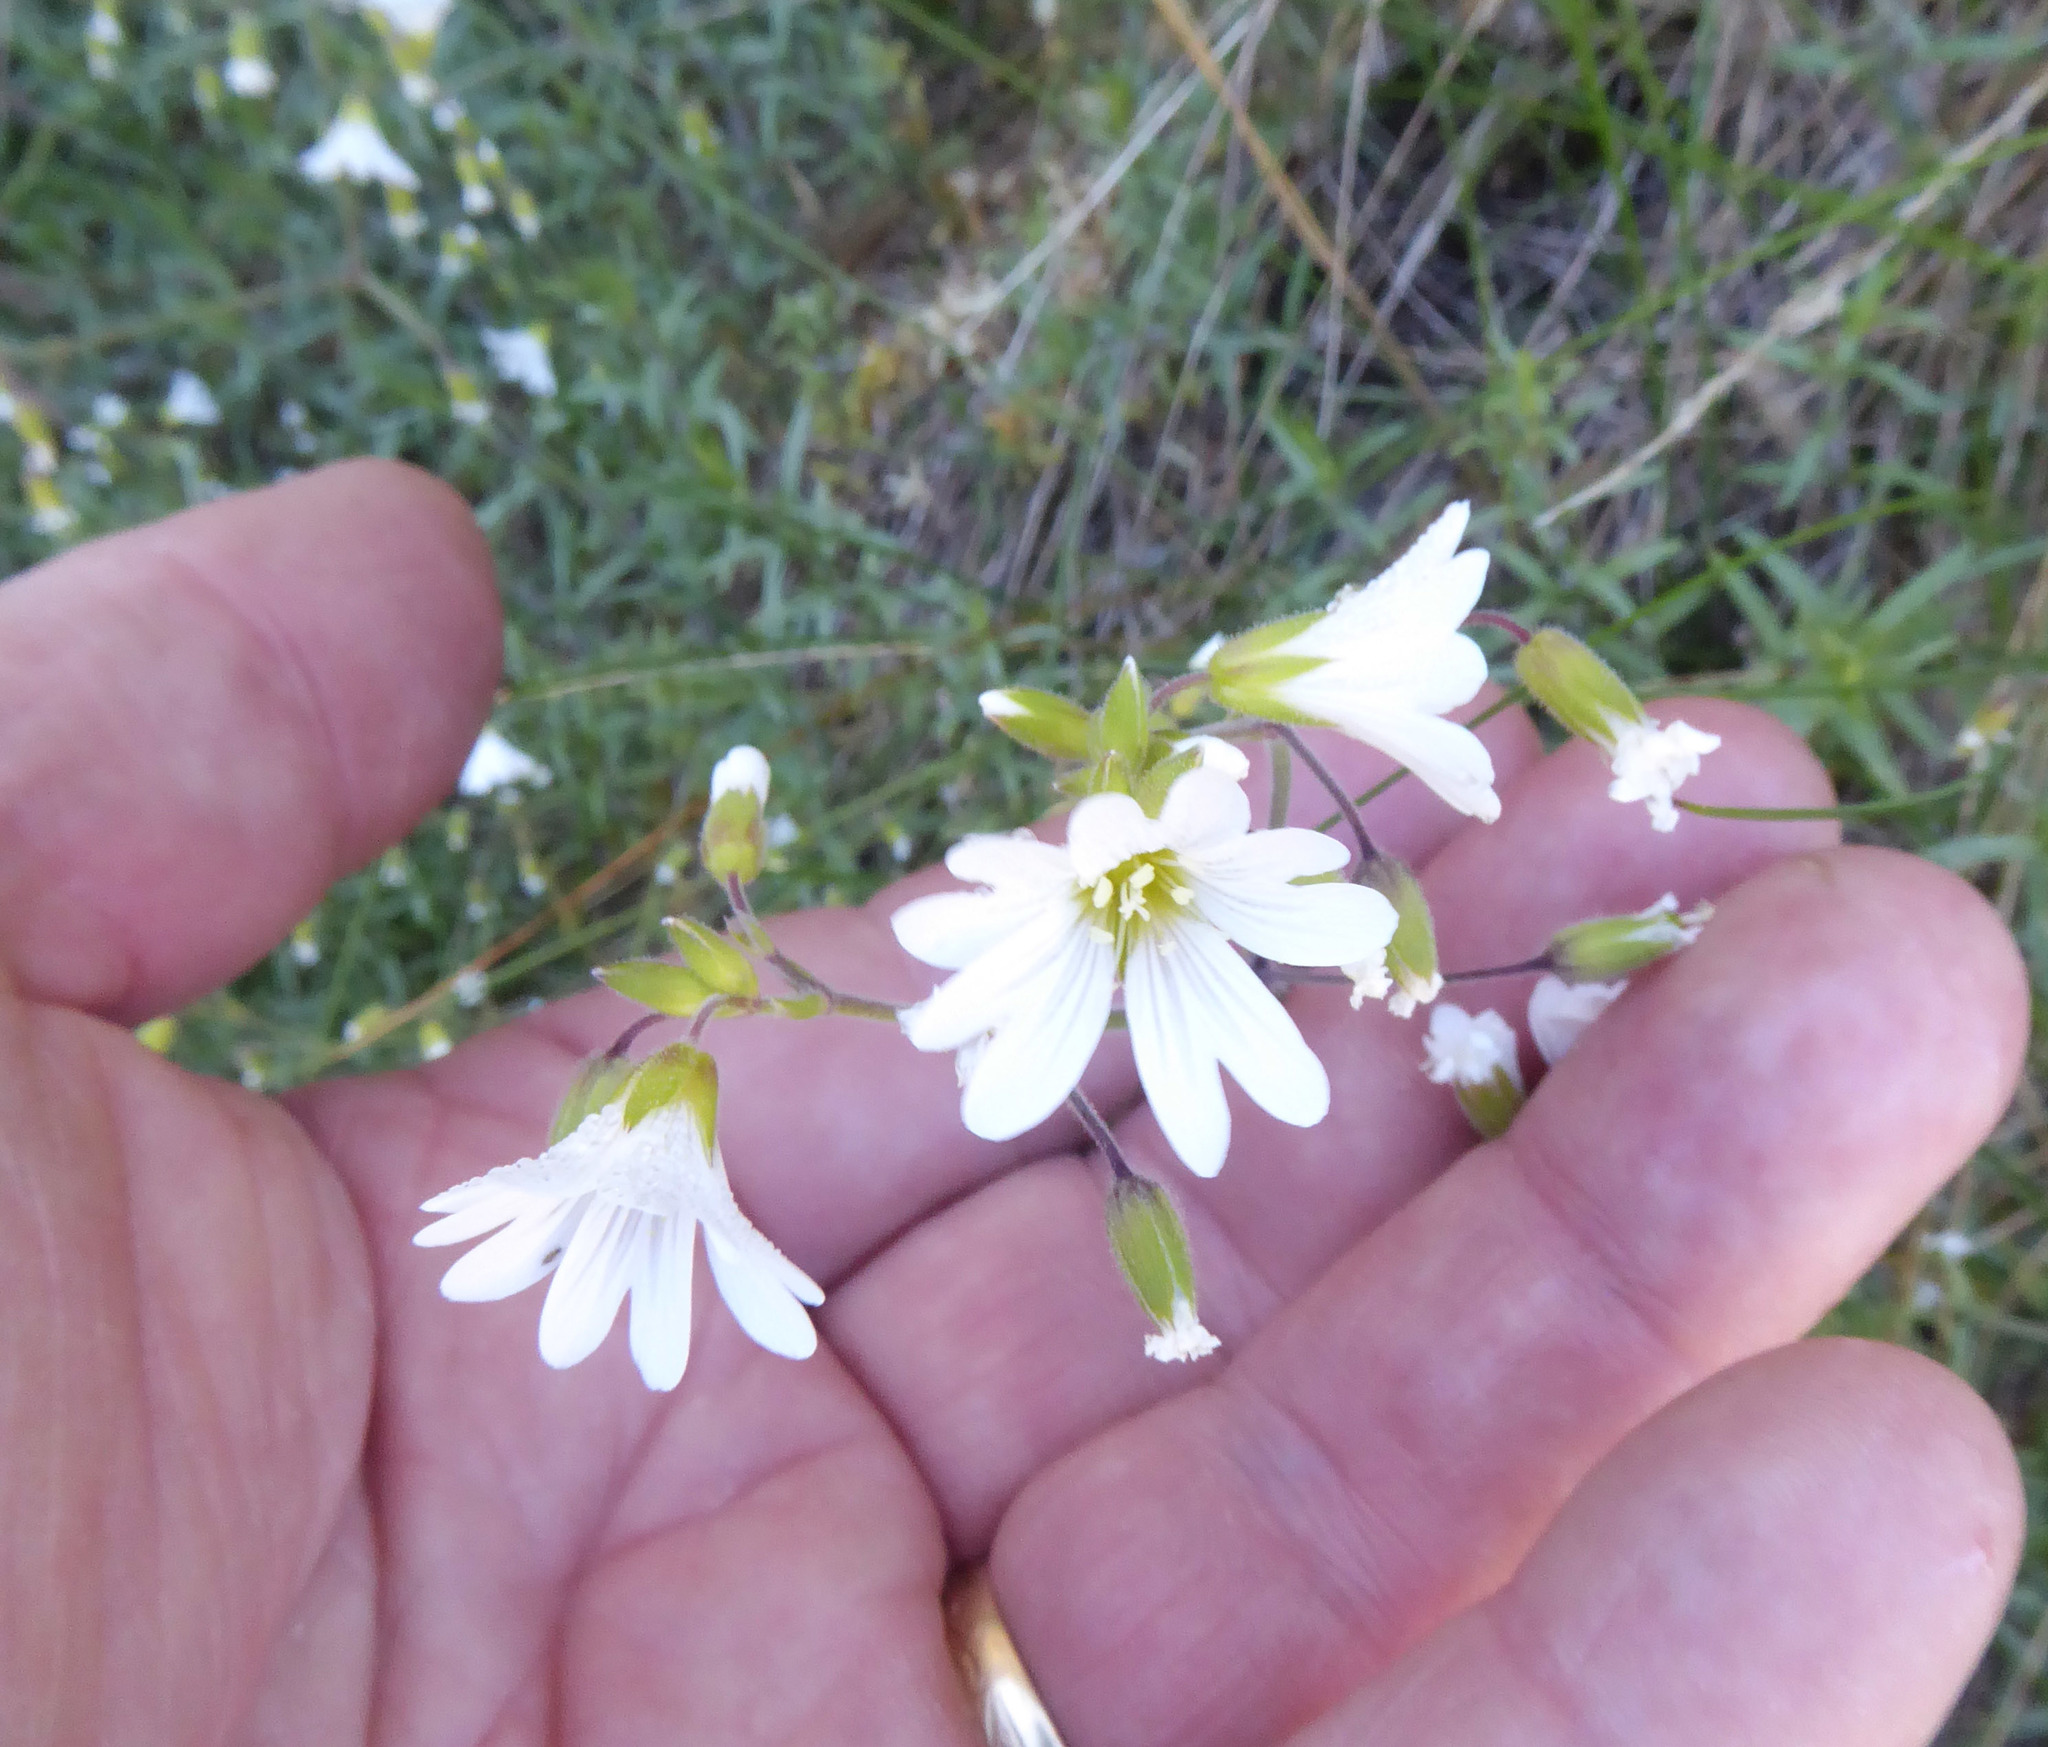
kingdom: Plantae
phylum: Tracheophyta
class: Magnoliopsida
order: Caryophyllales
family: Caryophyllaceae
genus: Cerastium
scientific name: Cerastium arvense
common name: Field mouse-ear
